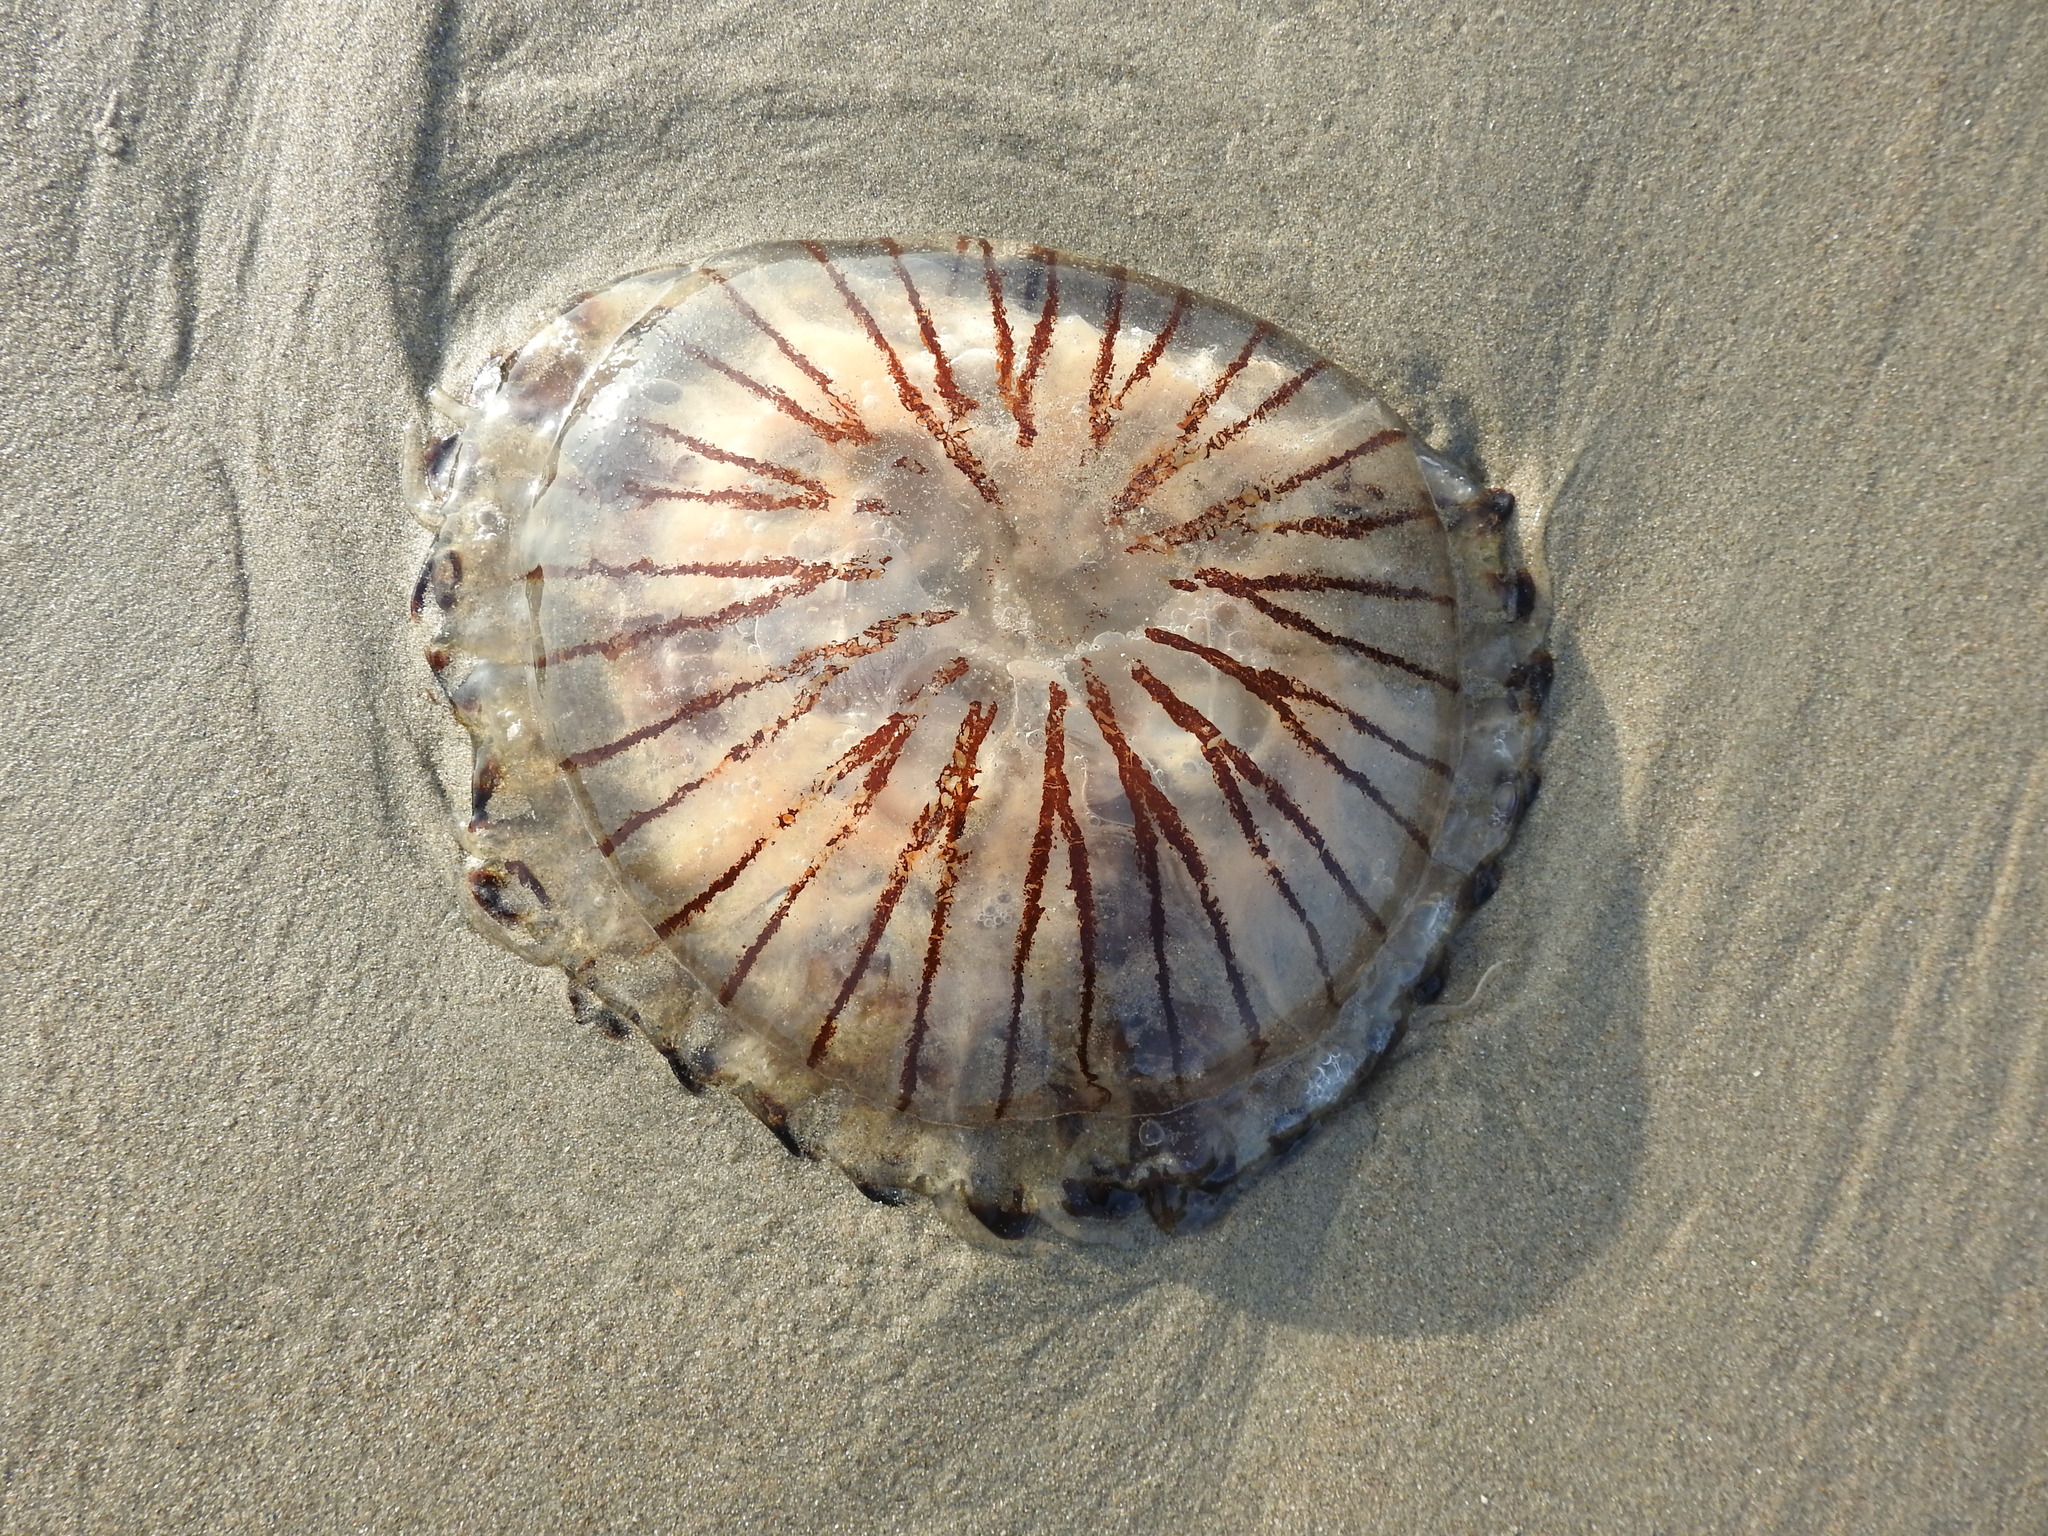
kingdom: Animalia
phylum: Cnidaria
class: Scyphozoa
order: Semaeostomeae
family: Pelagiidae
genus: Chrysaora
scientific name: Chrysaora hysoscella
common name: Compass jellyfish
